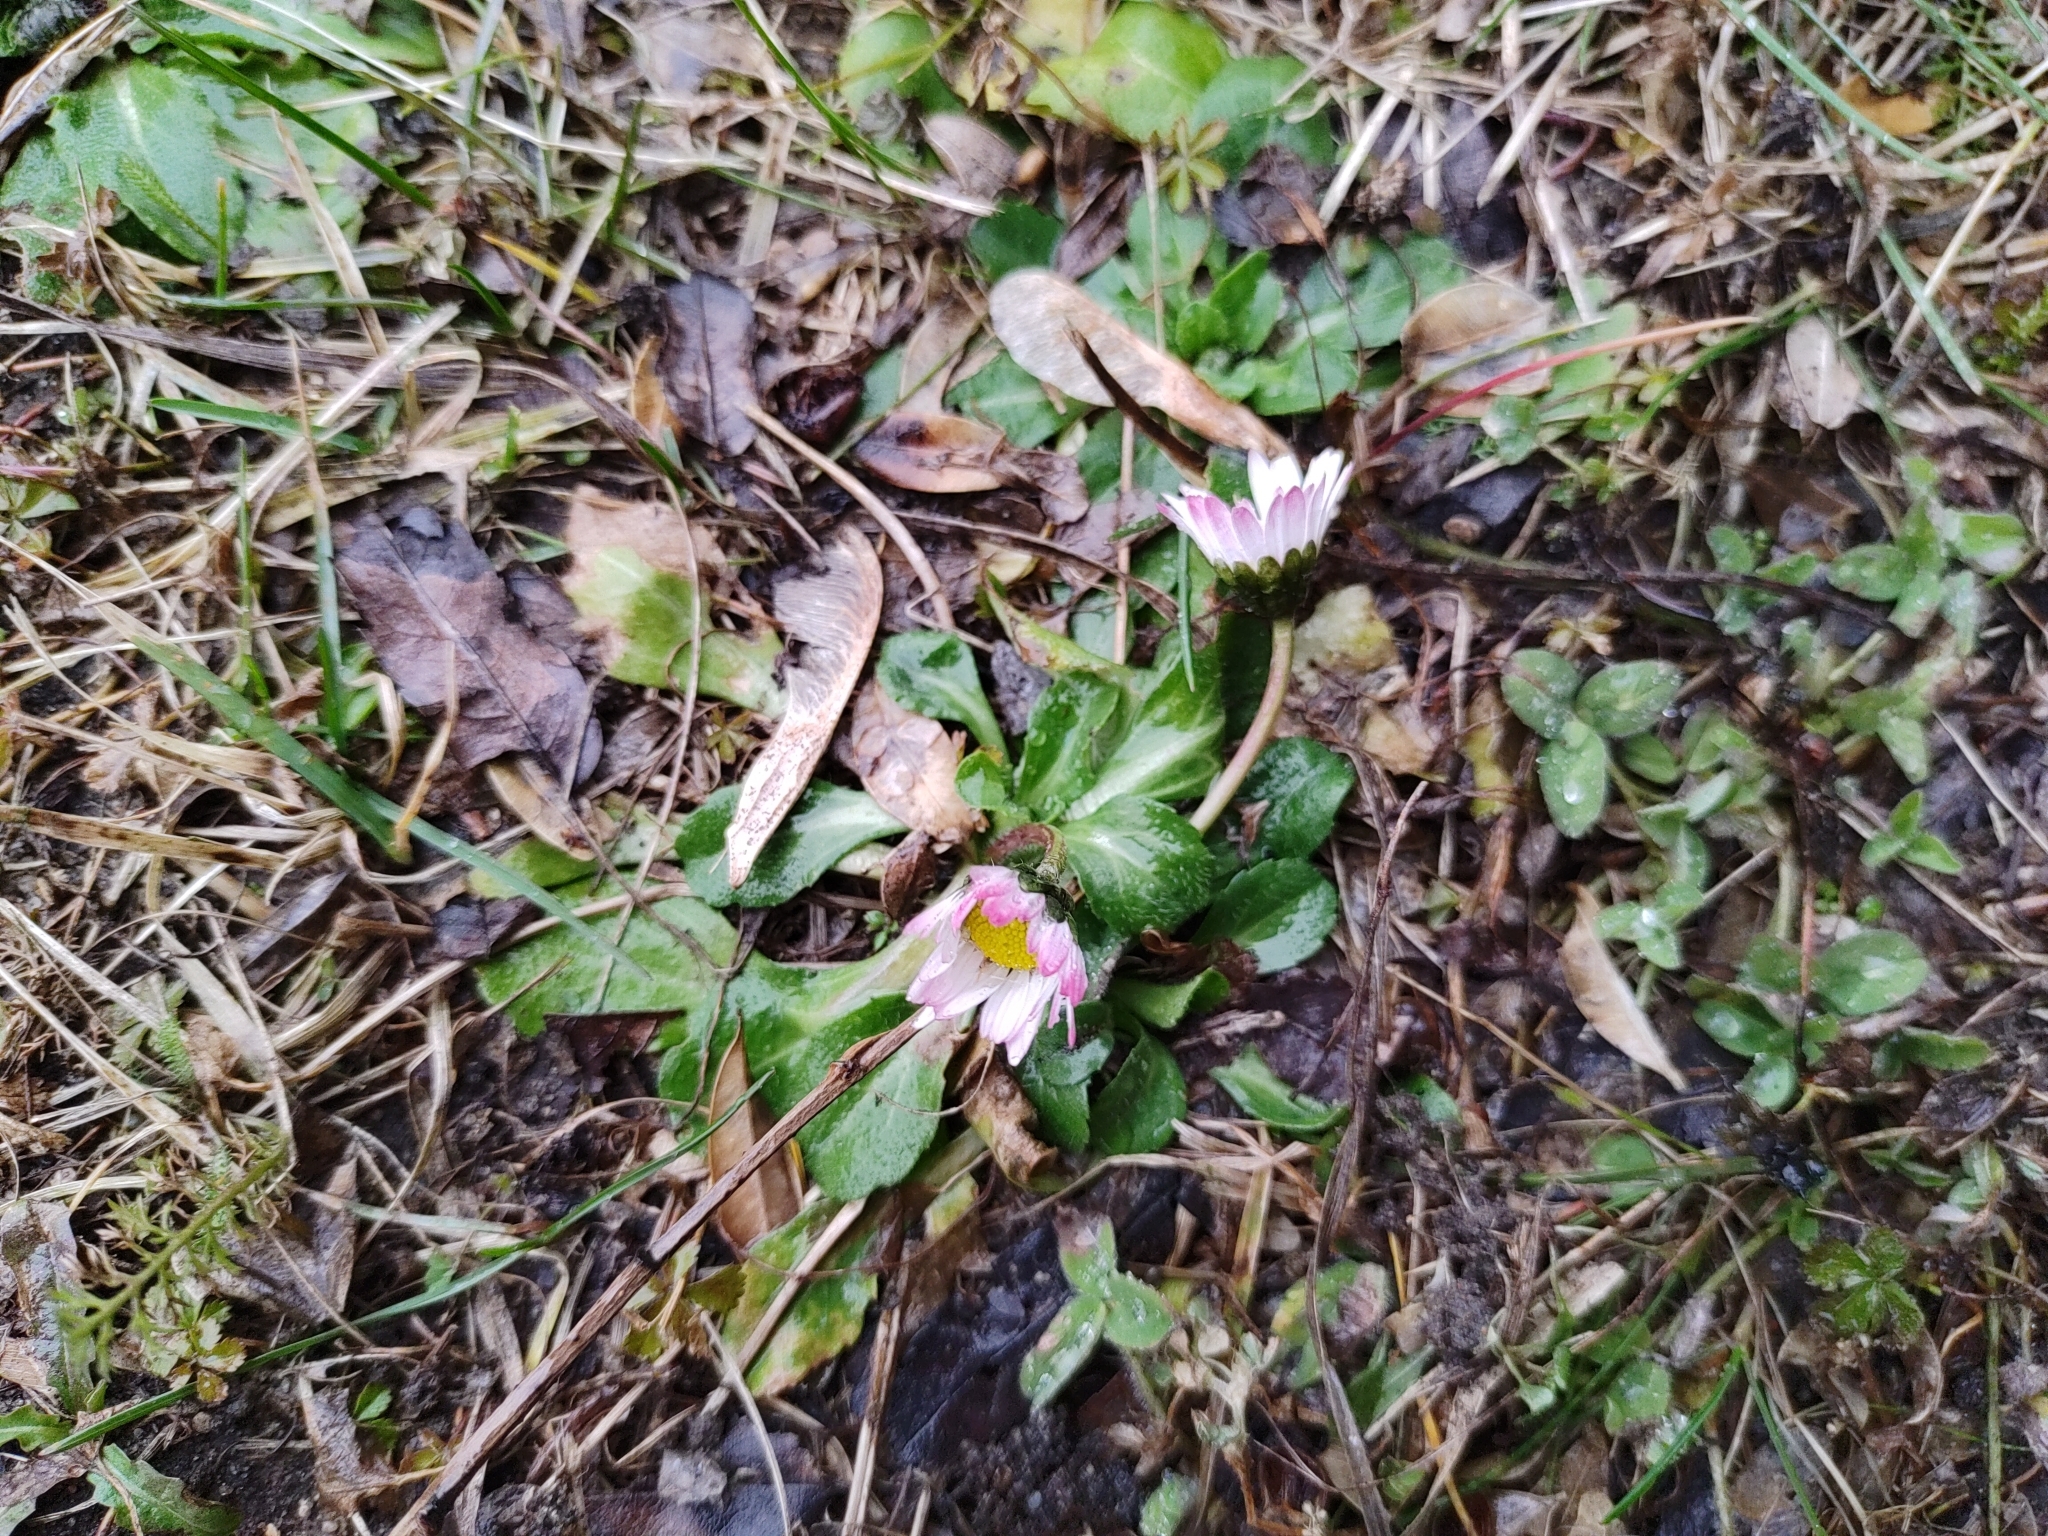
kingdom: Plantae
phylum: Tracheophyta
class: Magnoliopsida
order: Asterales
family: Asteraceae
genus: Bellis
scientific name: Bellis perennis
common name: Lawndaisy
